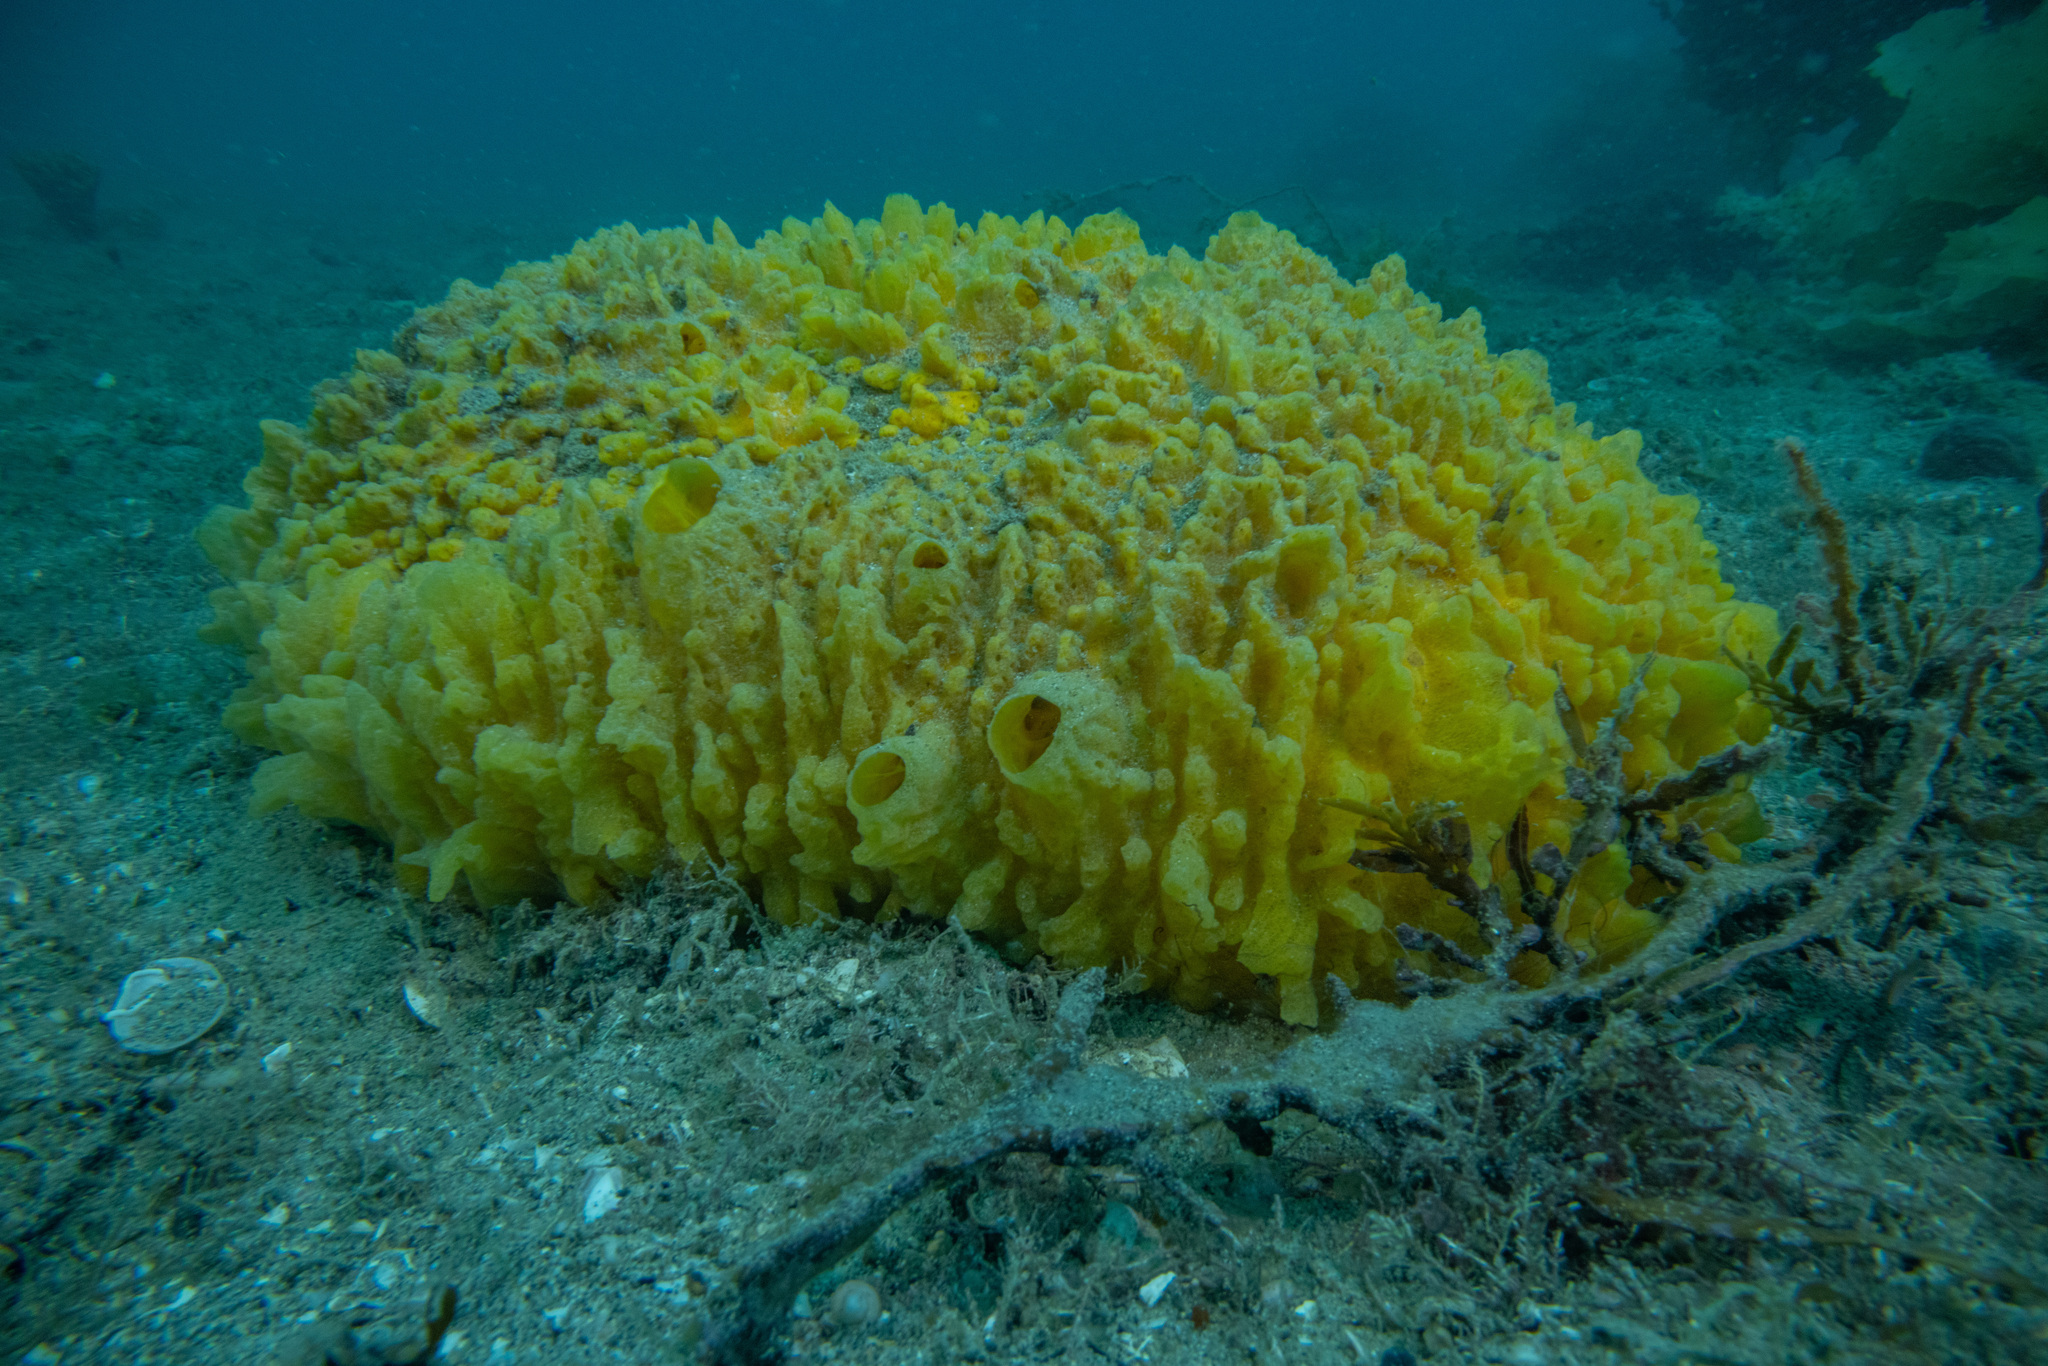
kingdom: Animalia
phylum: Porifera
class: Demospongiae
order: Polymastiida
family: Polymastiidae
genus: Polymastia
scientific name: Polymastia crocea
